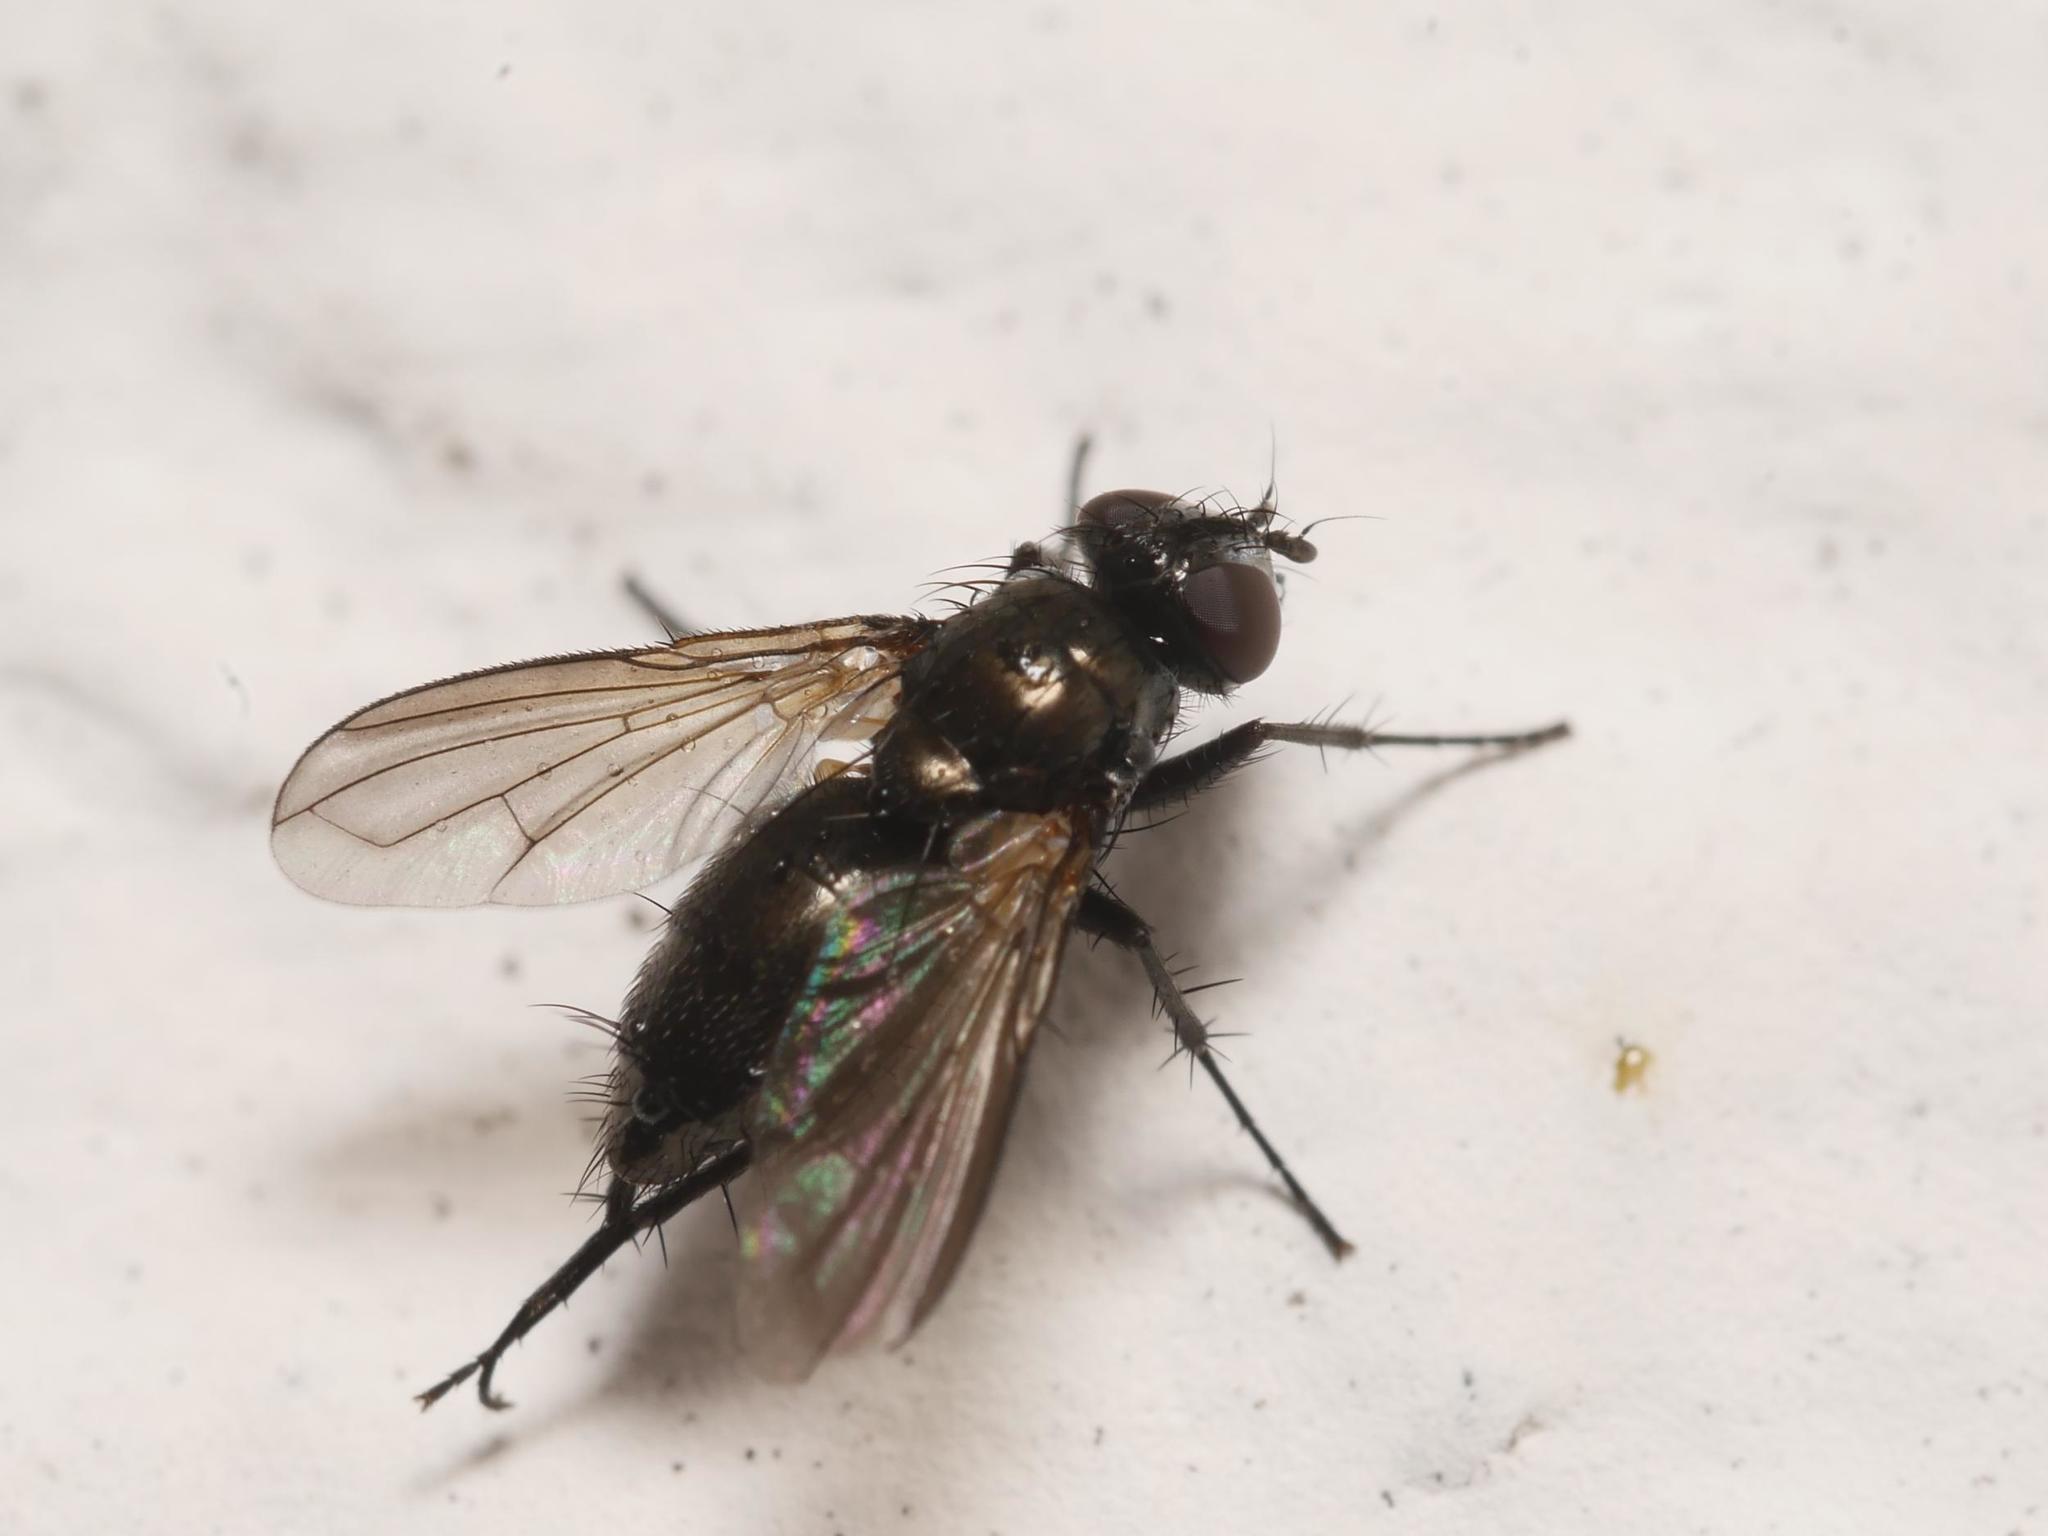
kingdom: Animalia
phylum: Arthropoda
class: Insecta
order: Diptera
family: Calliphoridae
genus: Rhinophora
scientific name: Rhinophora lepida
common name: Pouting woodlouse-fly
